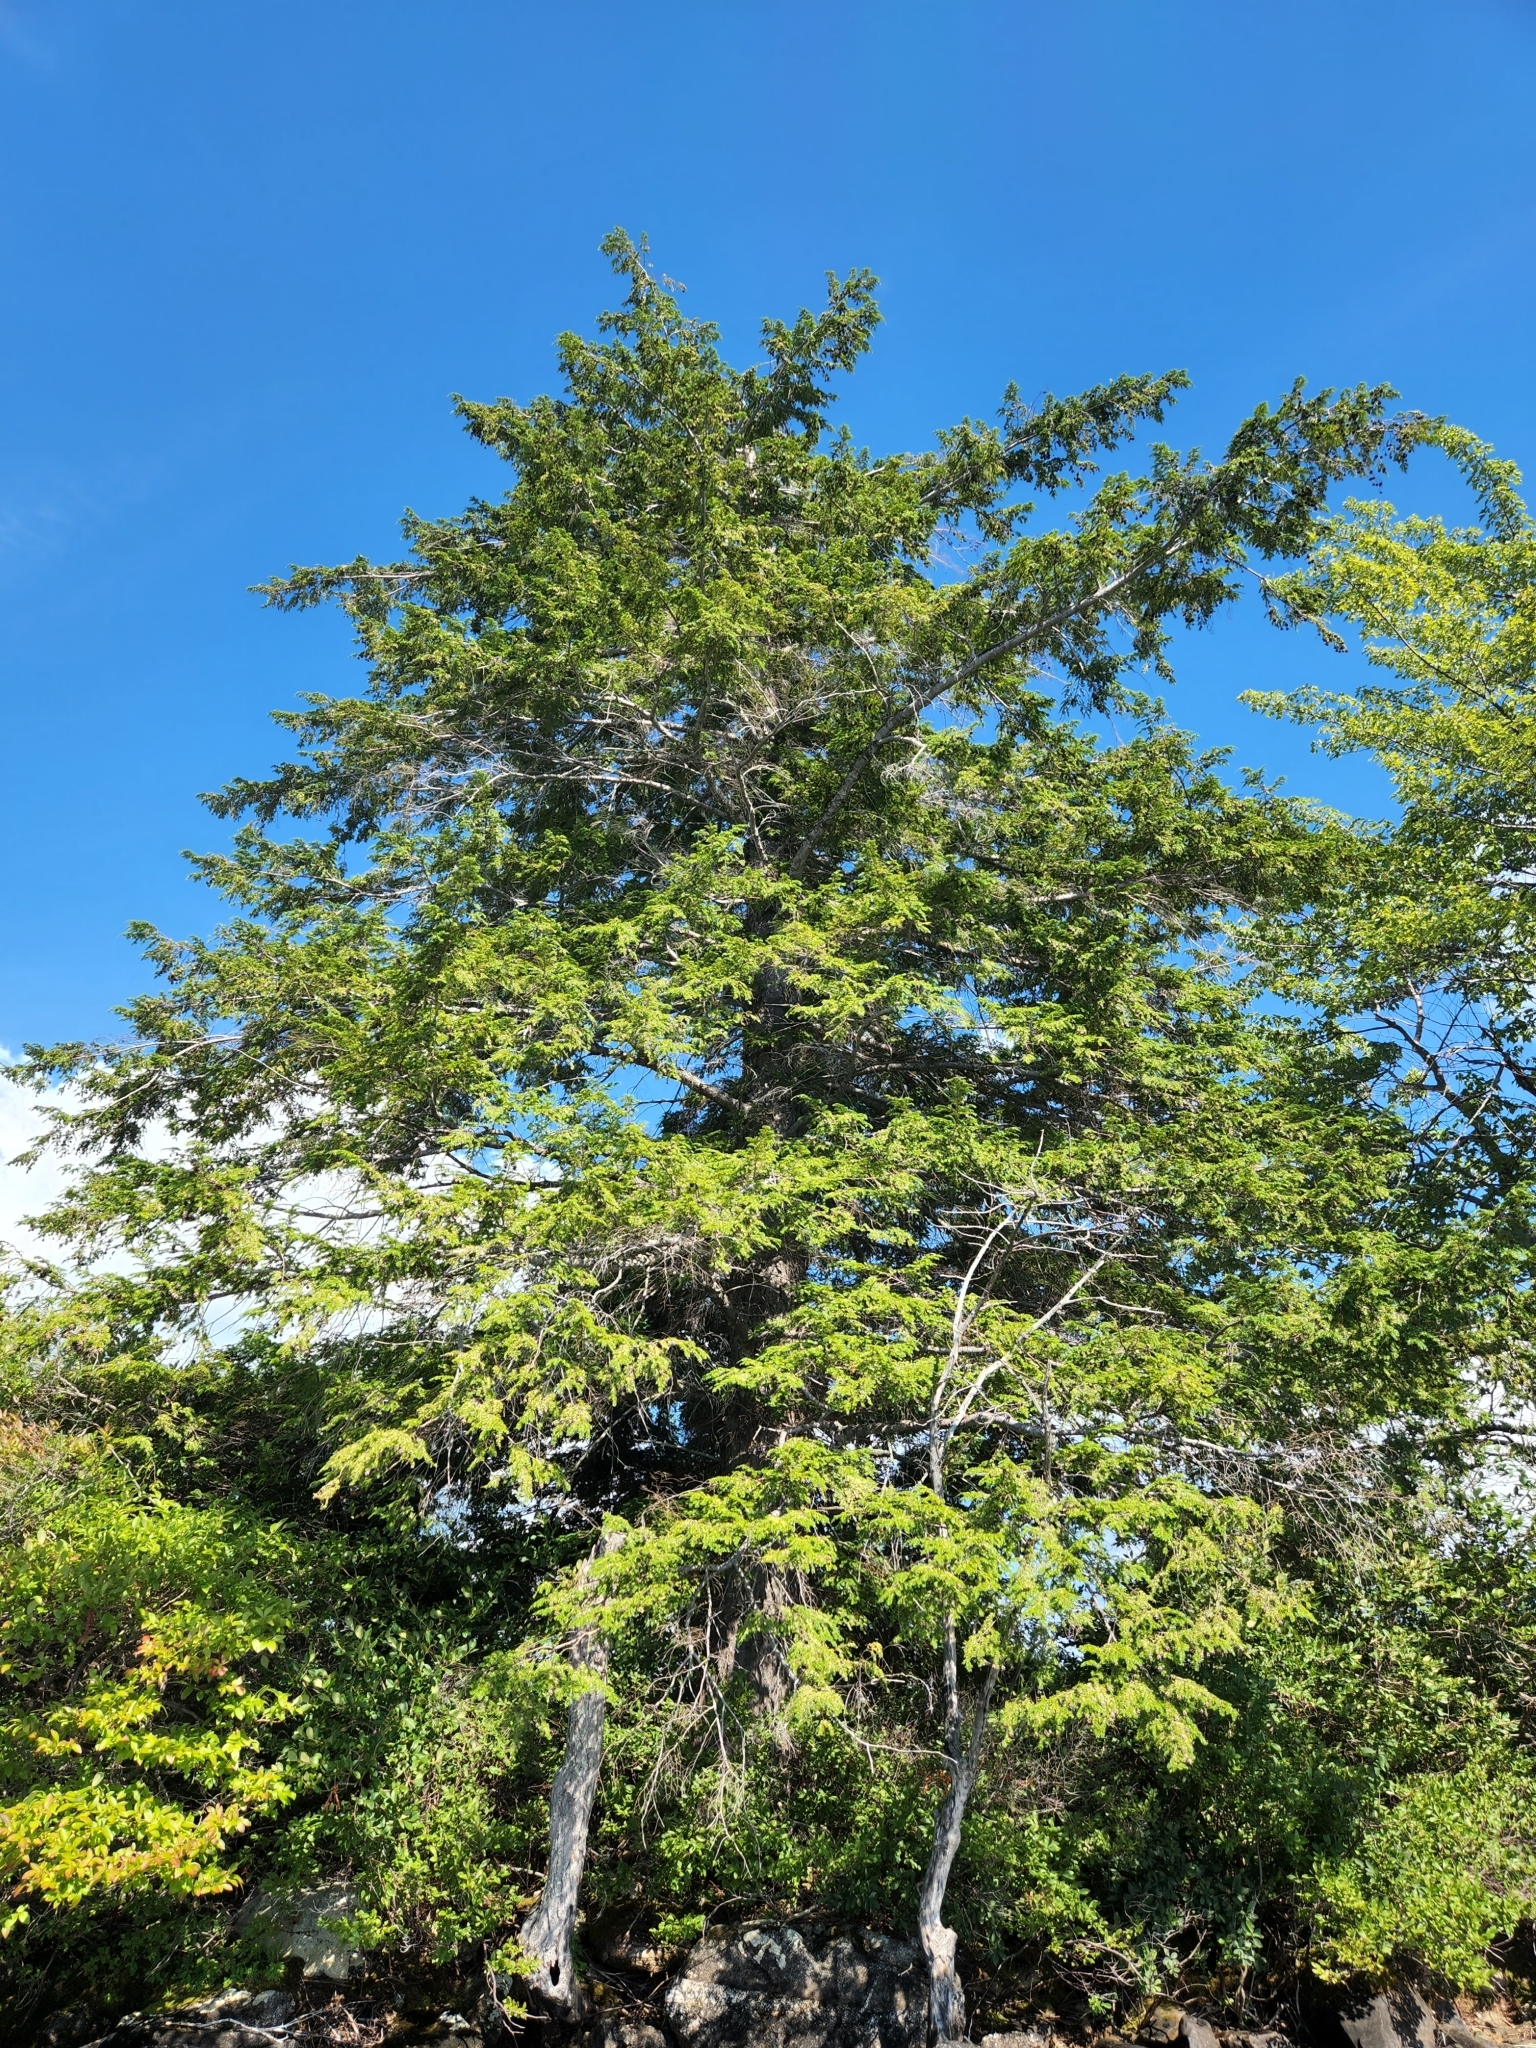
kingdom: Plantae
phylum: Tracheophyta
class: Pinopsida
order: Pinales
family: Pinaceae
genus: Tsuga
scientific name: Tsuga canadensis
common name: Eastern hemlock
